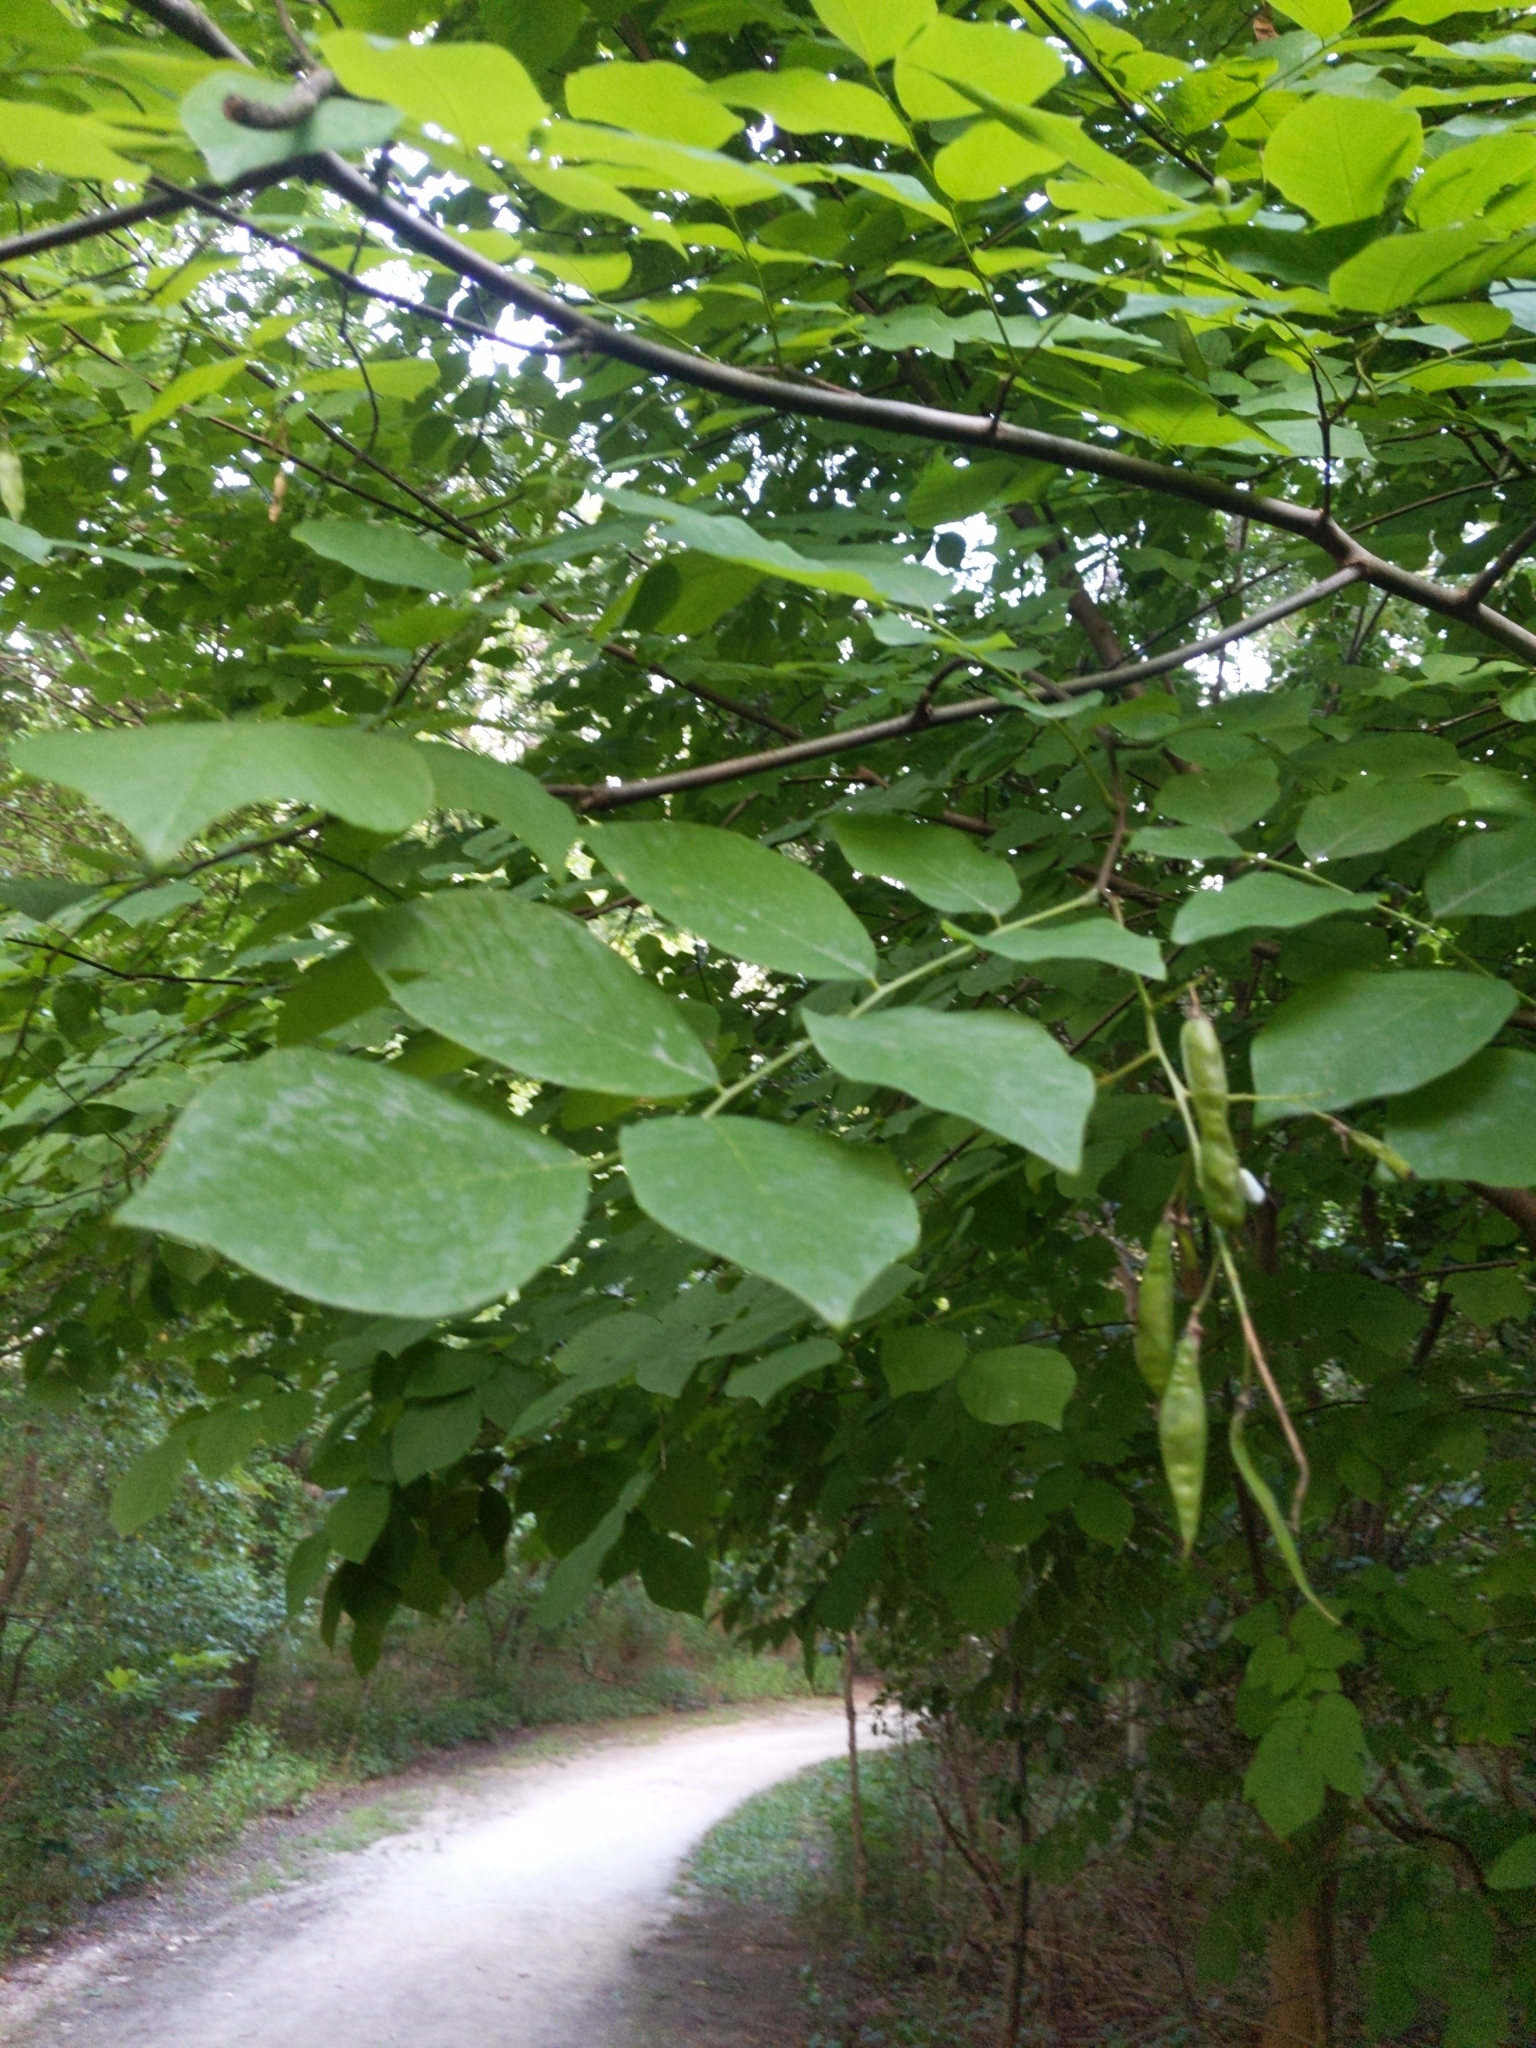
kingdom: Plantae
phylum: Tracheophyta
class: Magnoliopsida
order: Fabales
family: Fabaceae
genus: Cladrastis
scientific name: Cladrastis kentukea
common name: Kentucky yellow-wood
